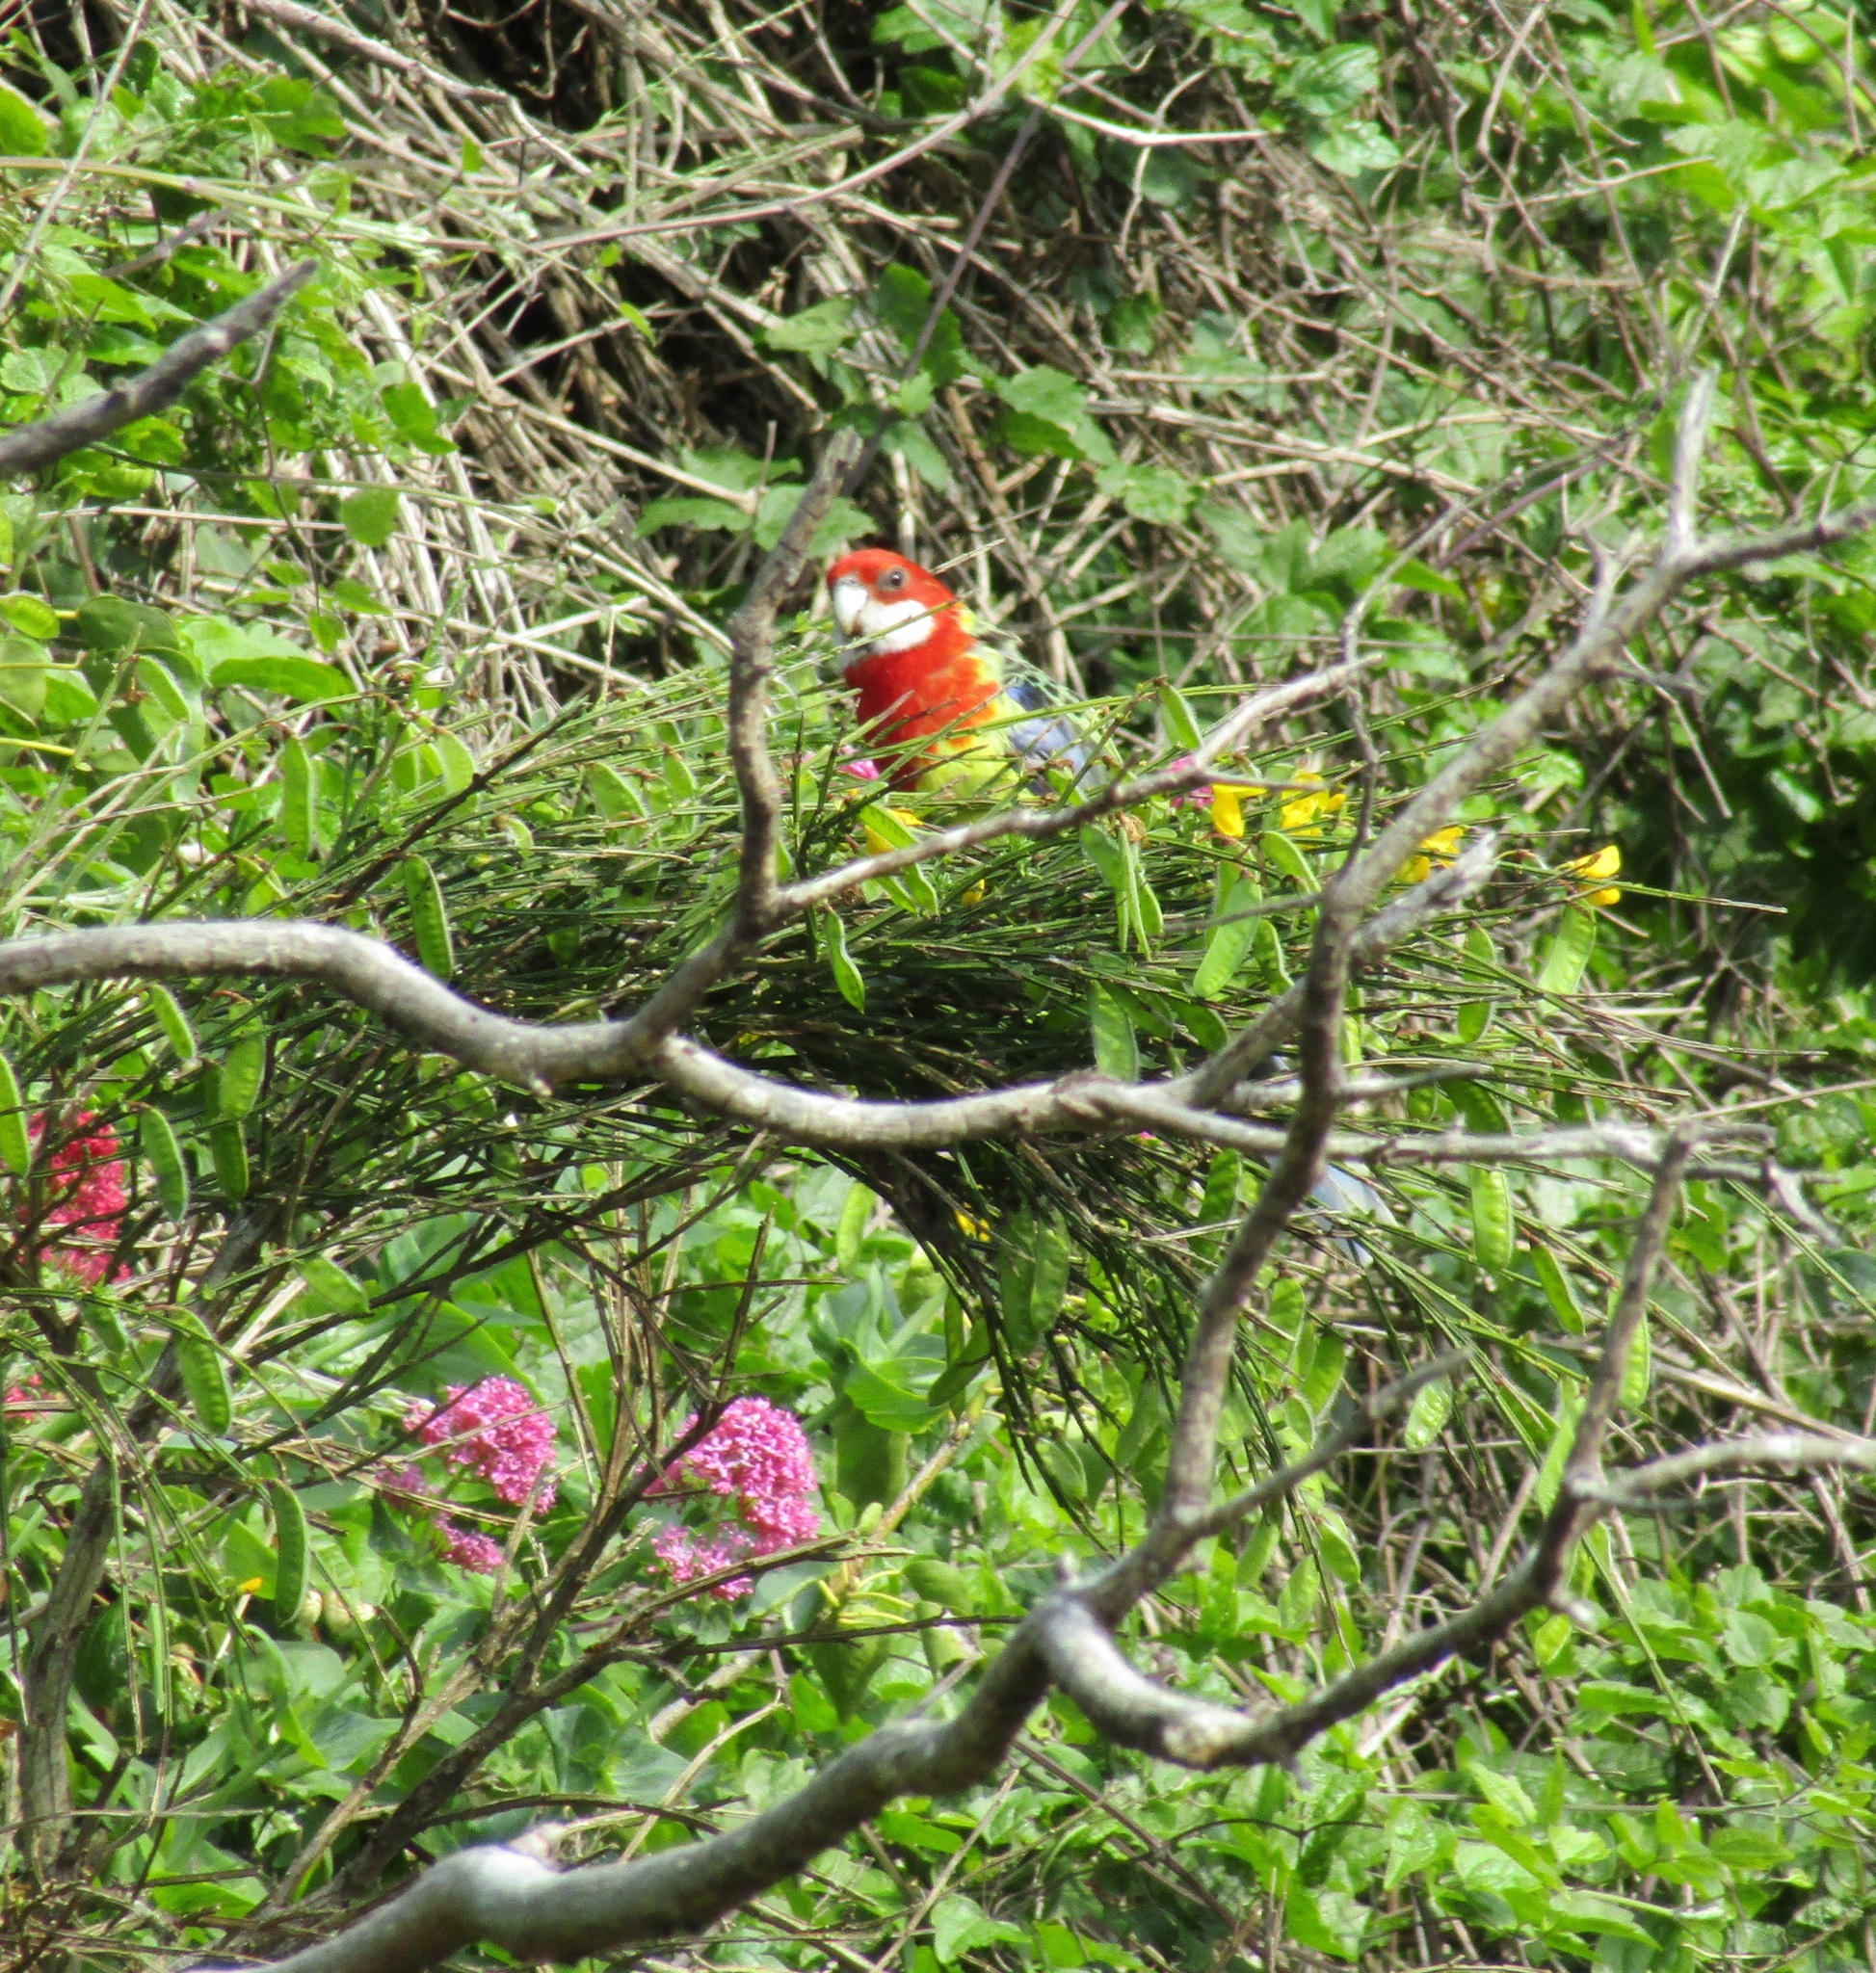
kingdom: Animalia
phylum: Chordata
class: Aves
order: Psittaciformes
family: Psittacidae
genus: Platycercus
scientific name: Platycercus eximius
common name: Eastern rosella
